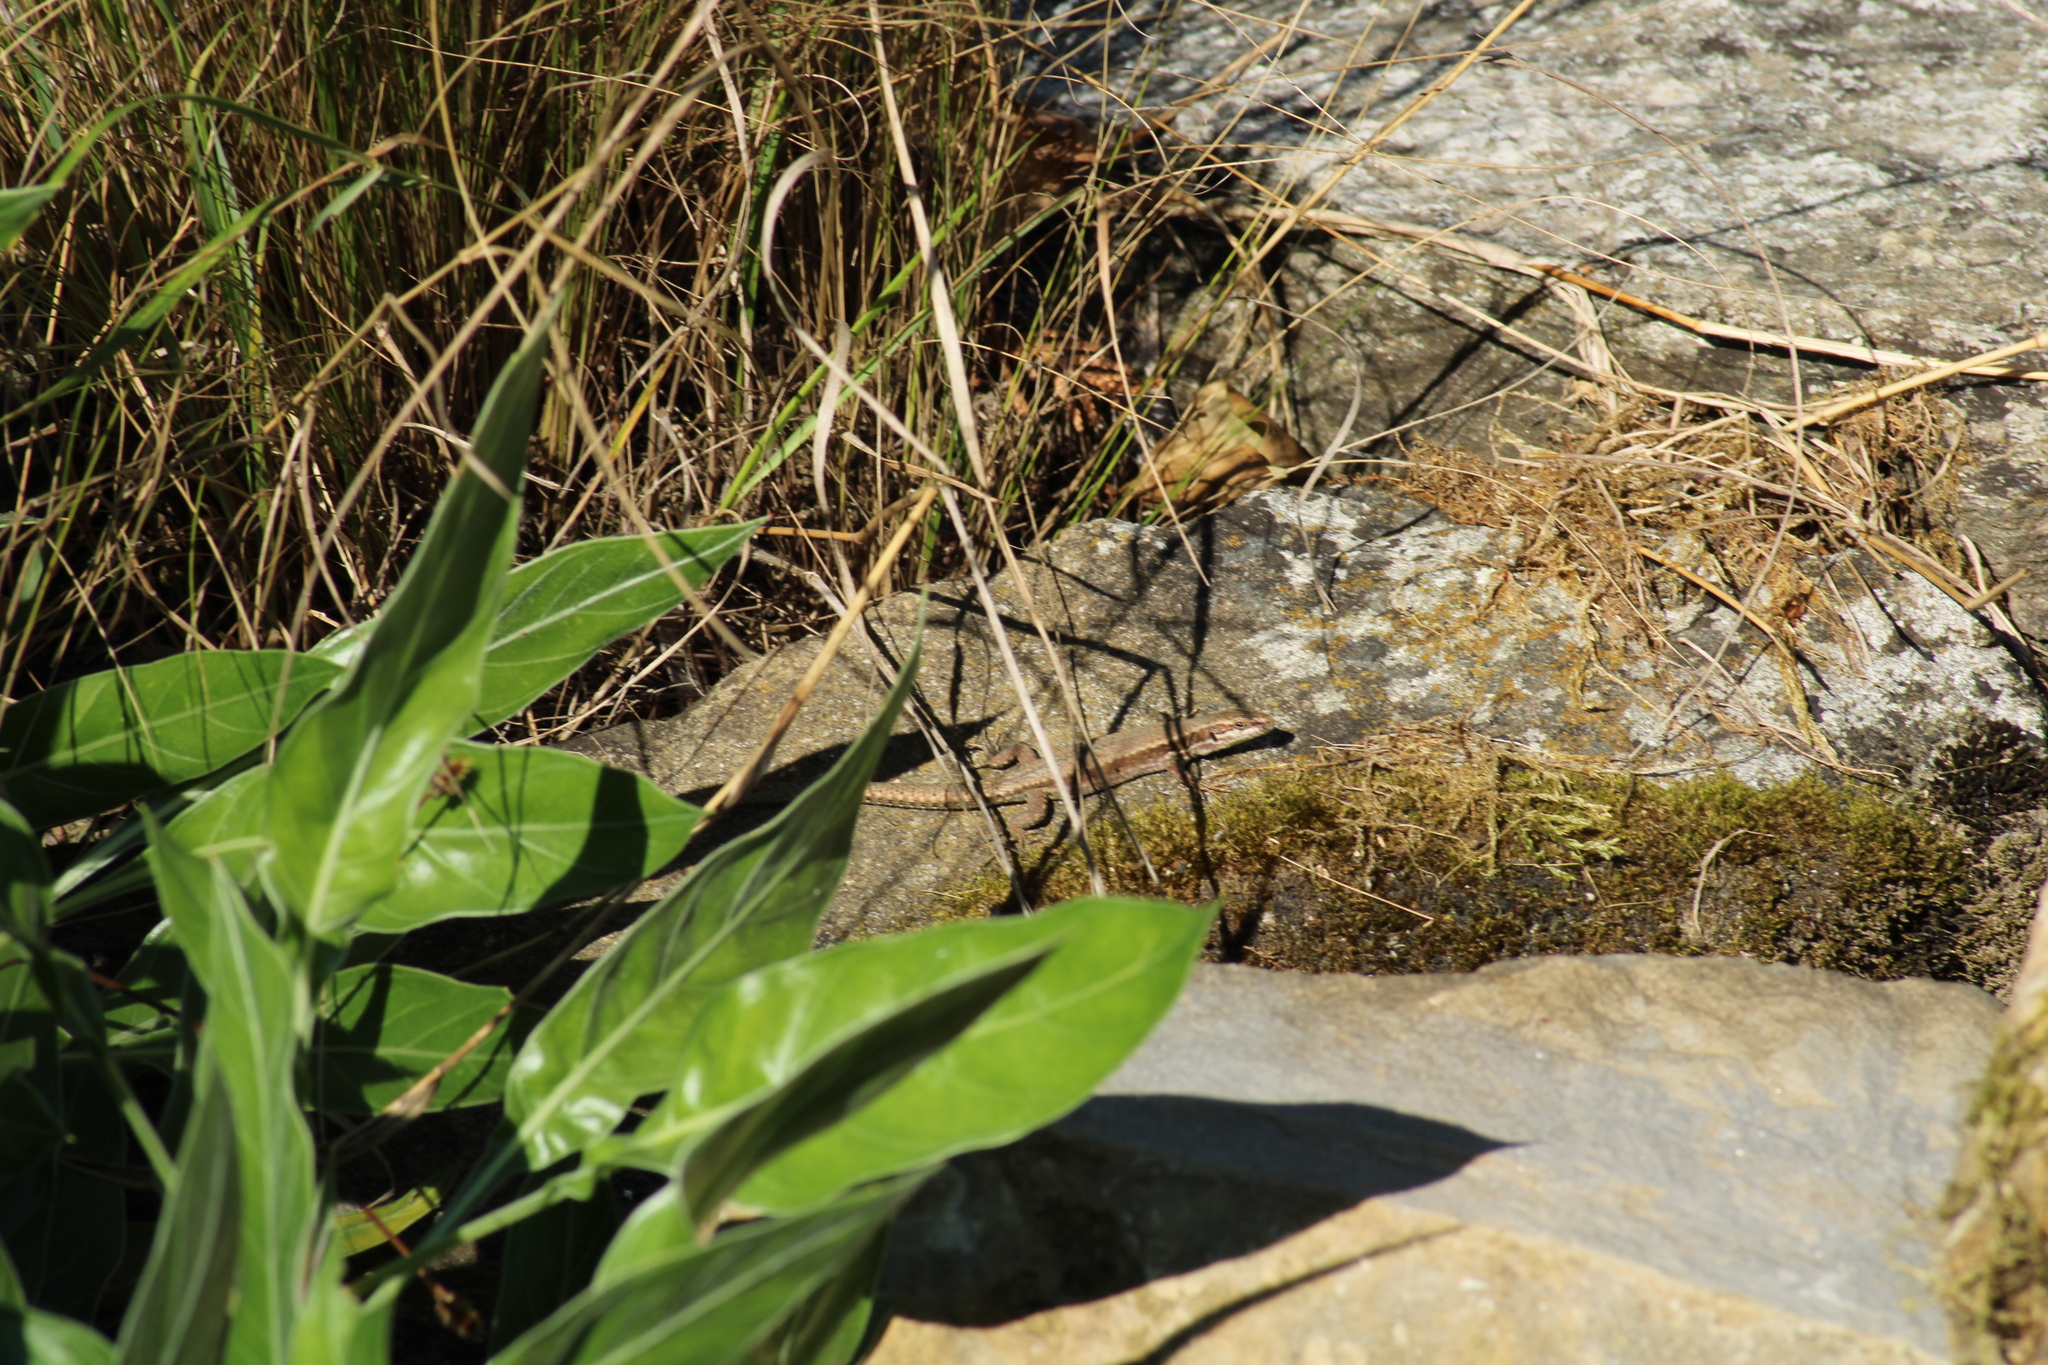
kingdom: Animalia
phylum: Chordata
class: Squamata
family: Lacertidae
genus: Podarcis
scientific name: Podarcis muralis
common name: Common wall lizard
